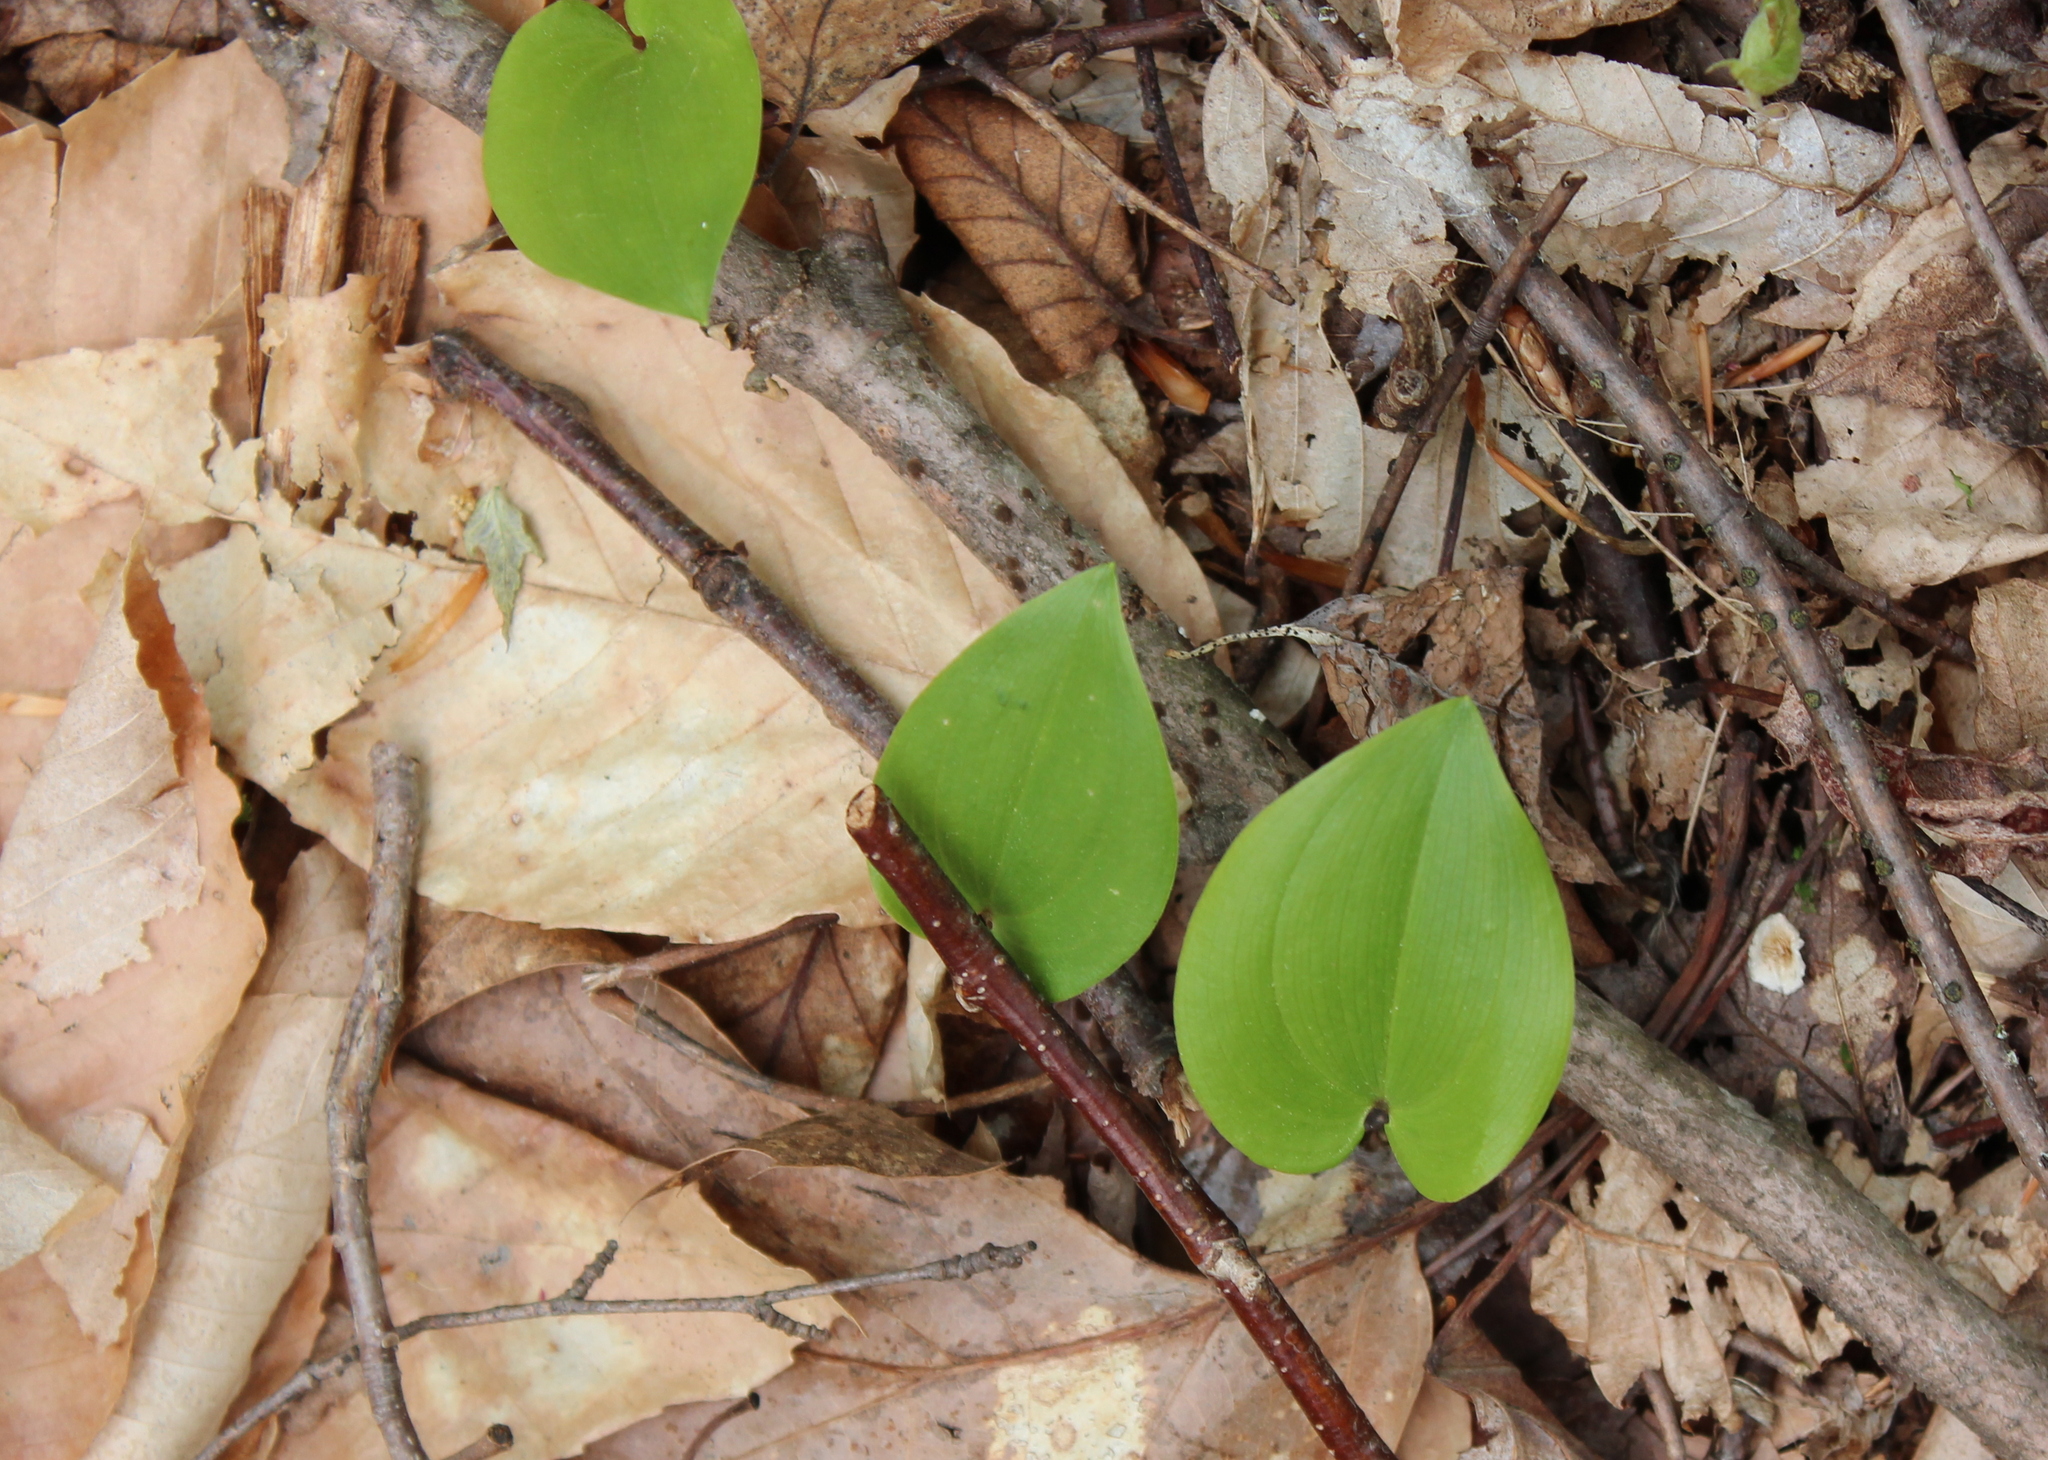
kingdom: Plantae
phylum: Tracheophyta
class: Liliopsida
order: Asparagales
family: Asparagaceae
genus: Maianthemum
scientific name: Maianthemum canadense
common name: False lily-of-the-valley
